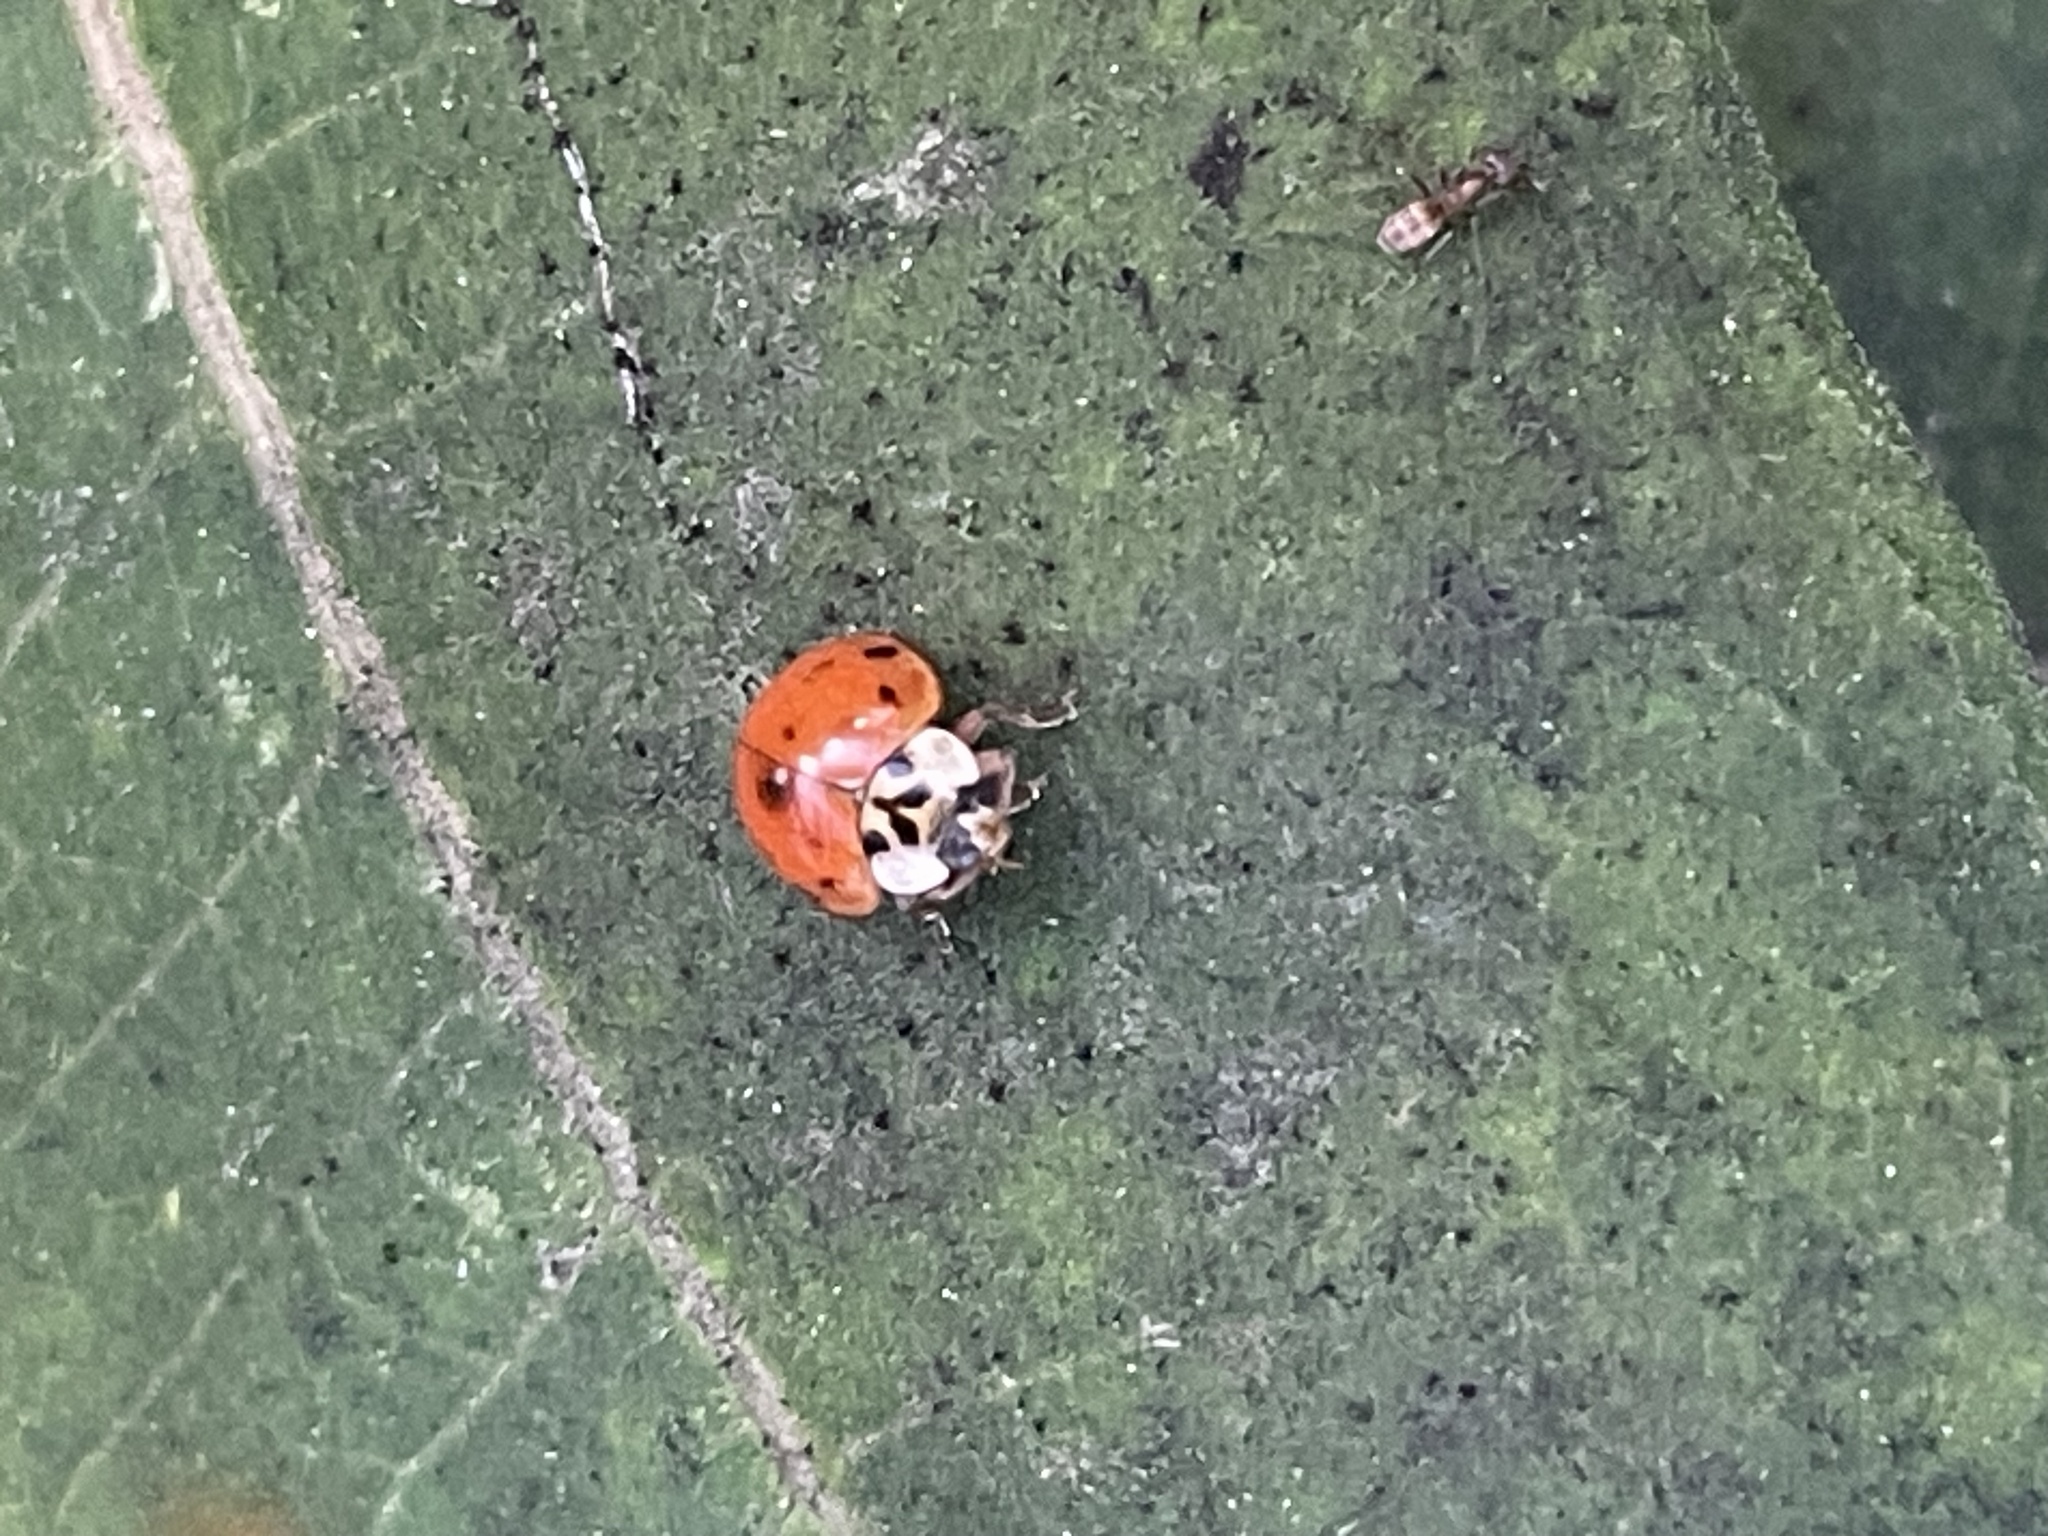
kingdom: Animalia
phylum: Arthropoda
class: Insecta
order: Coleoptera
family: Coccinellidae
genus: Harmonia
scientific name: Harmonia axyridis
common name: Harlequin ladybird
